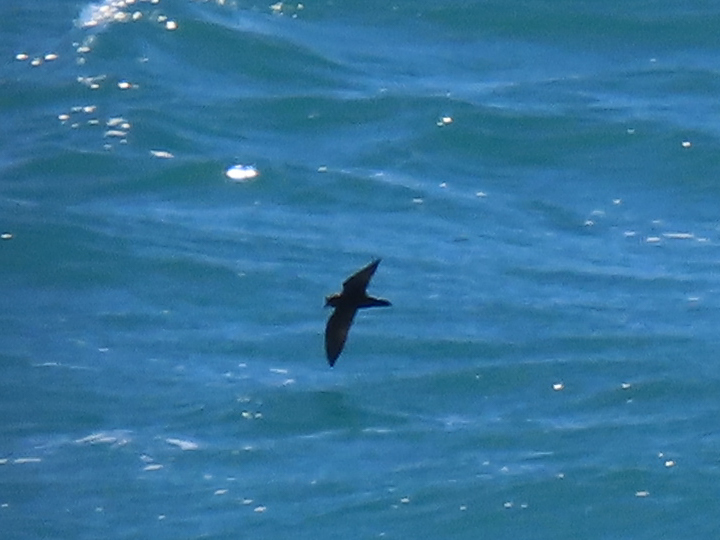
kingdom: Animalia
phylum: Chordata
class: Aves
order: Procellariiformes
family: Hydrobatidae
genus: Oceanodroma
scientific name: Oceanodroma microsoma
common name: Least storm-petrel
